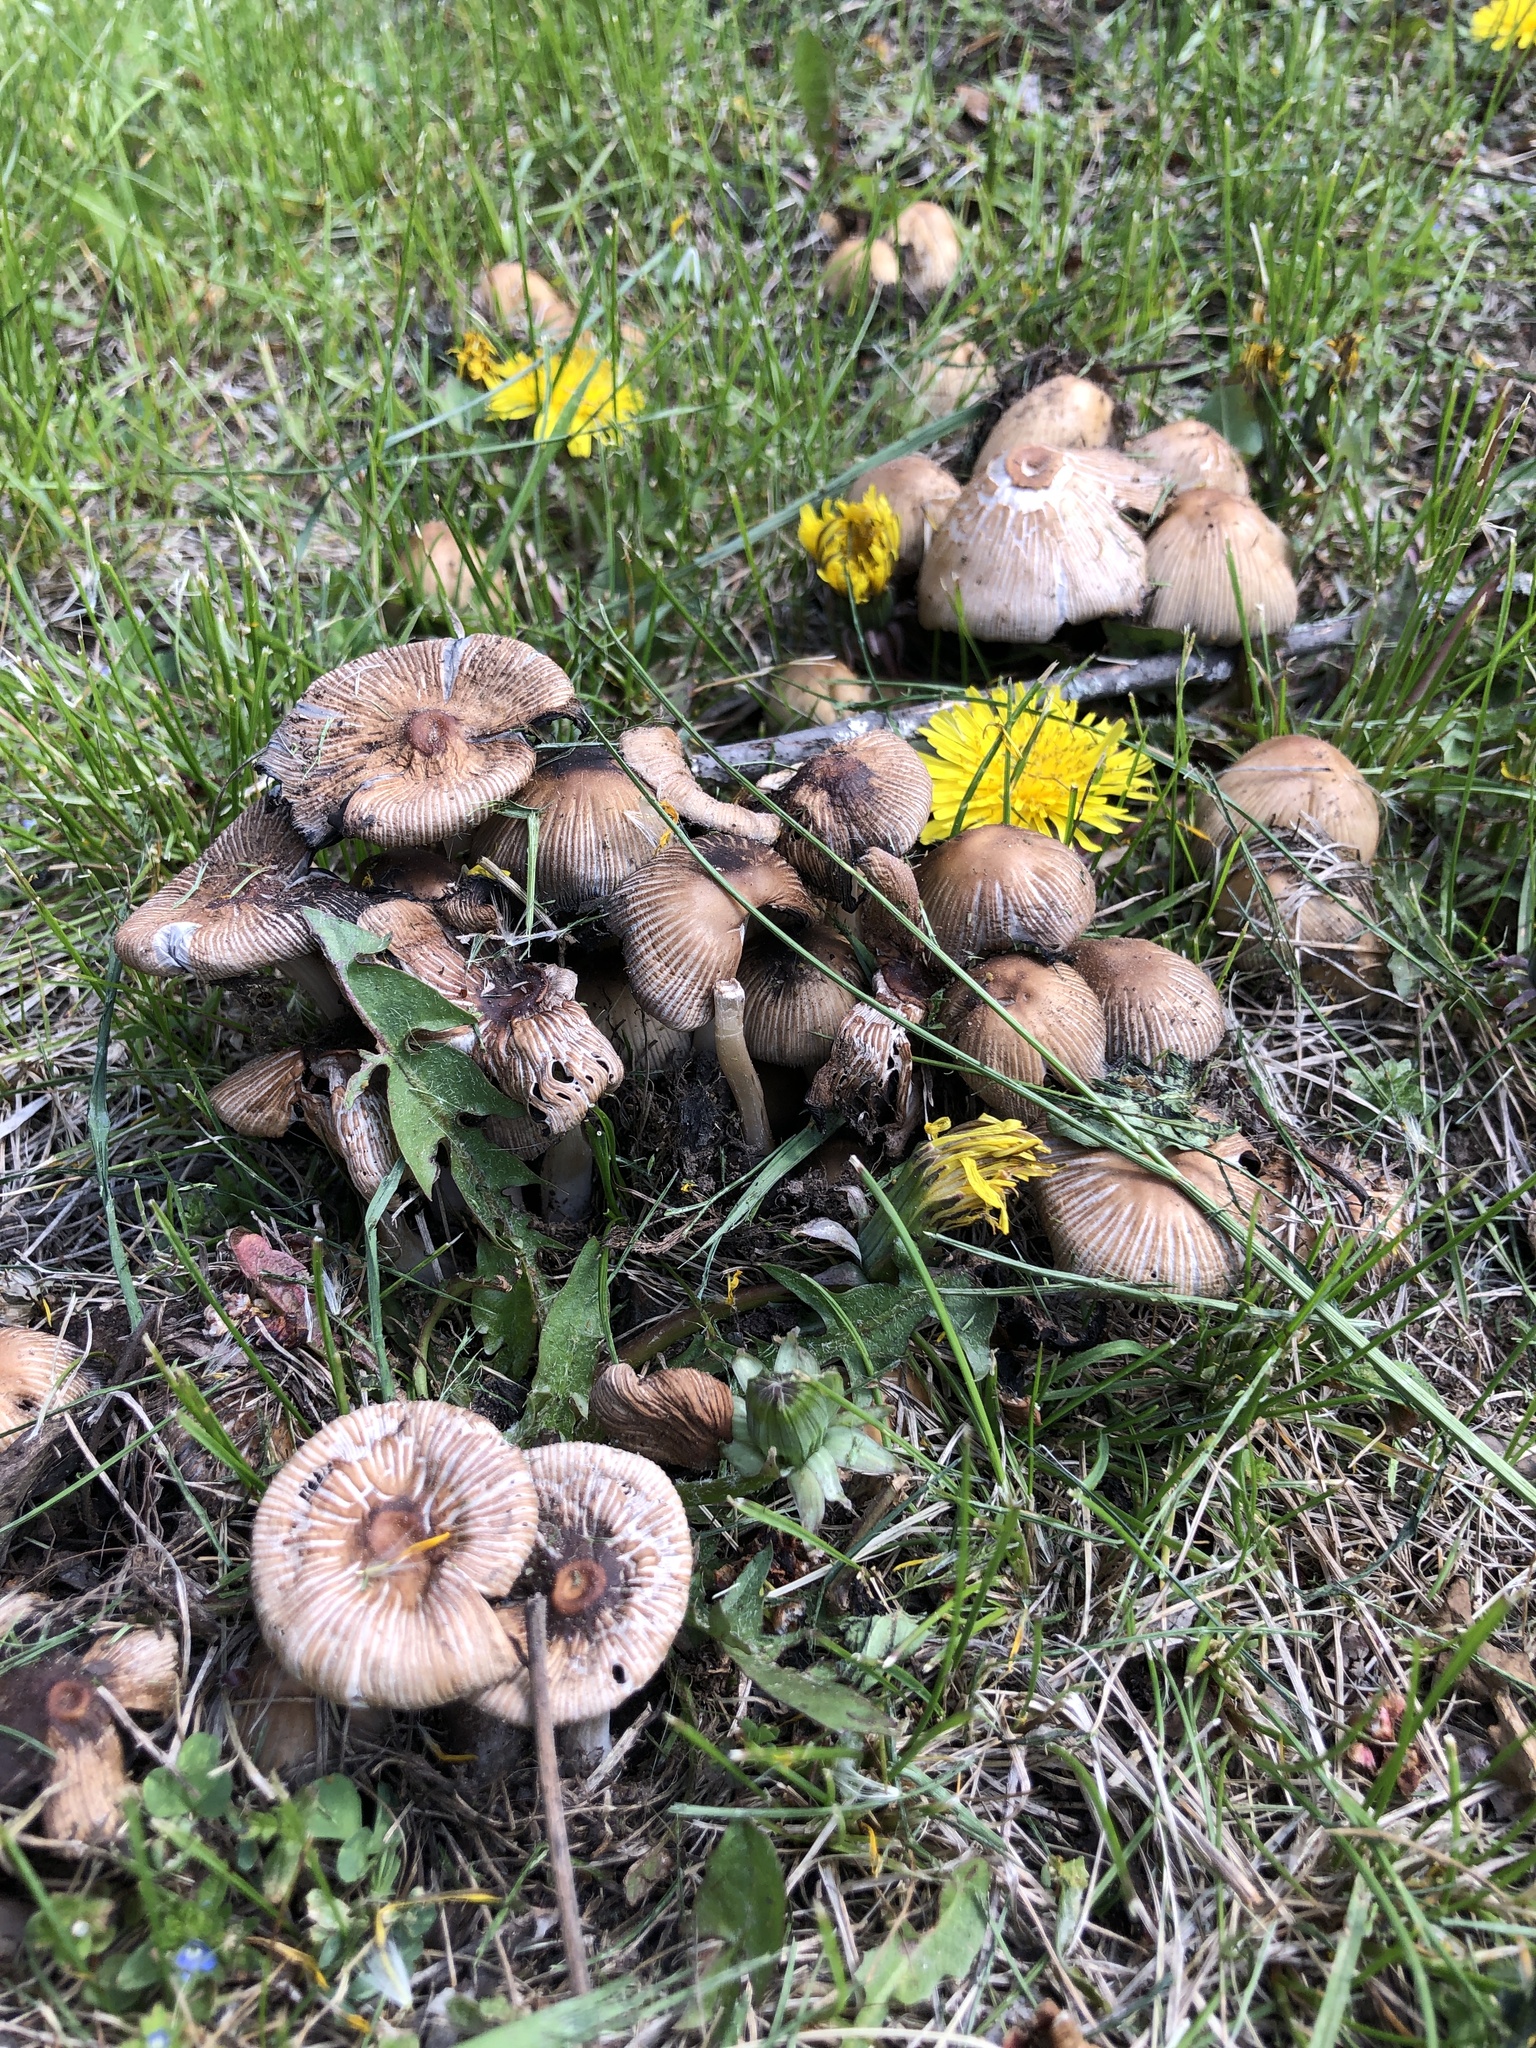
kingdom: Fungi
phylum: Basidiomycota
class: Agaricomycetes
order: Agaricales
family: Psathyrellaceae
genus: Coprinopsis
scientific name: Coprinopsis atramentaria
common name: Common ink-cap
